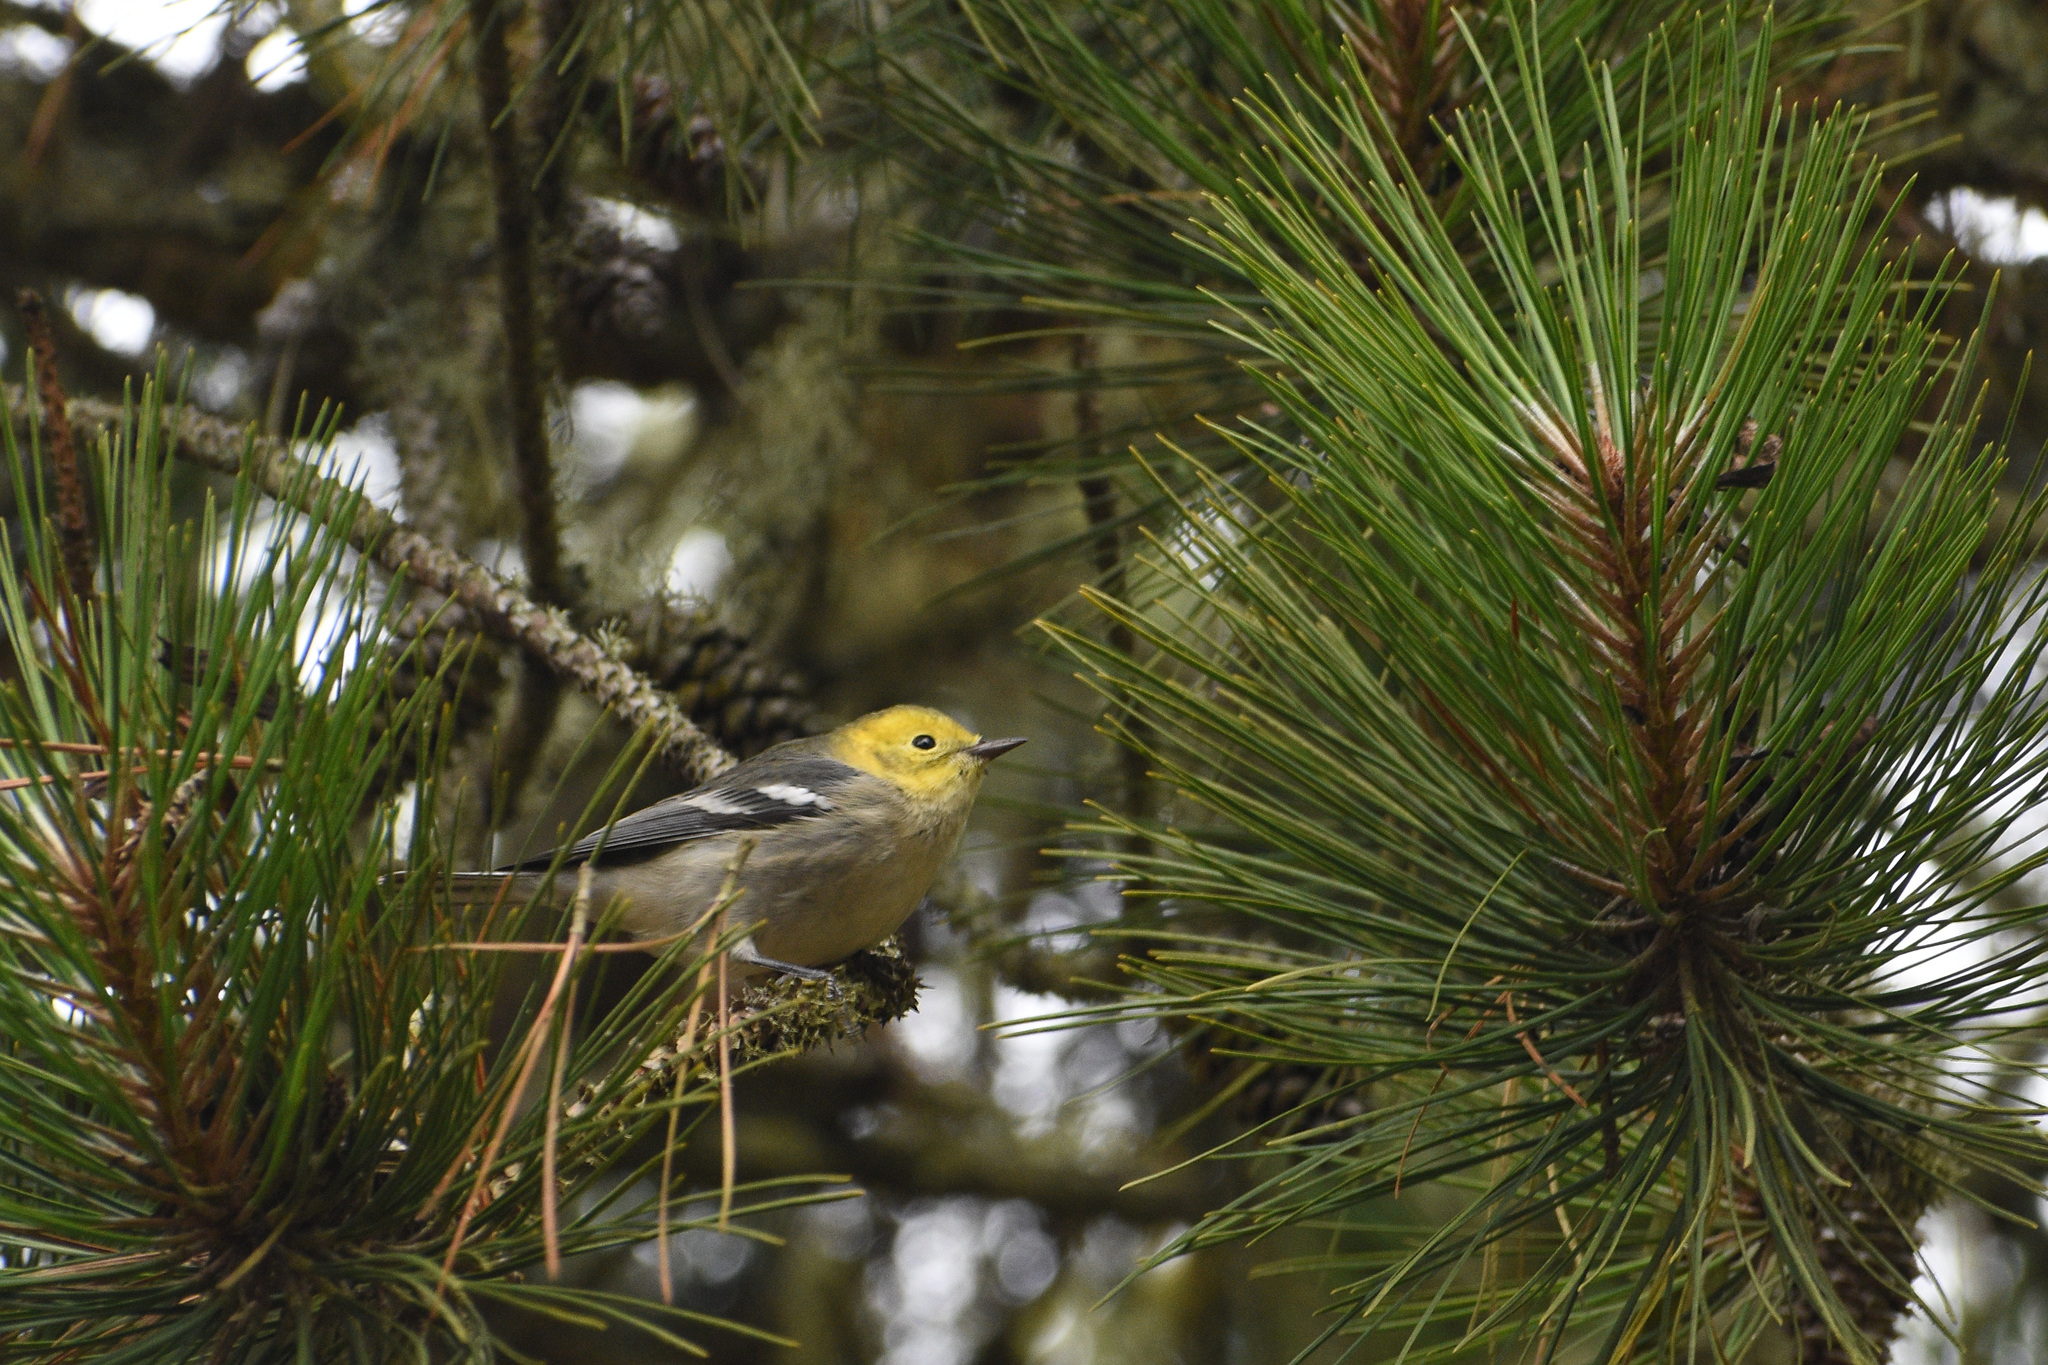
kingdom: Animalia
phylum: Chordata
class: Aves
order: Passeriformes
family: Parulidae
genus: Setophaga
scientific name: Setophaga occidentalis
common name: Hermit warbler
